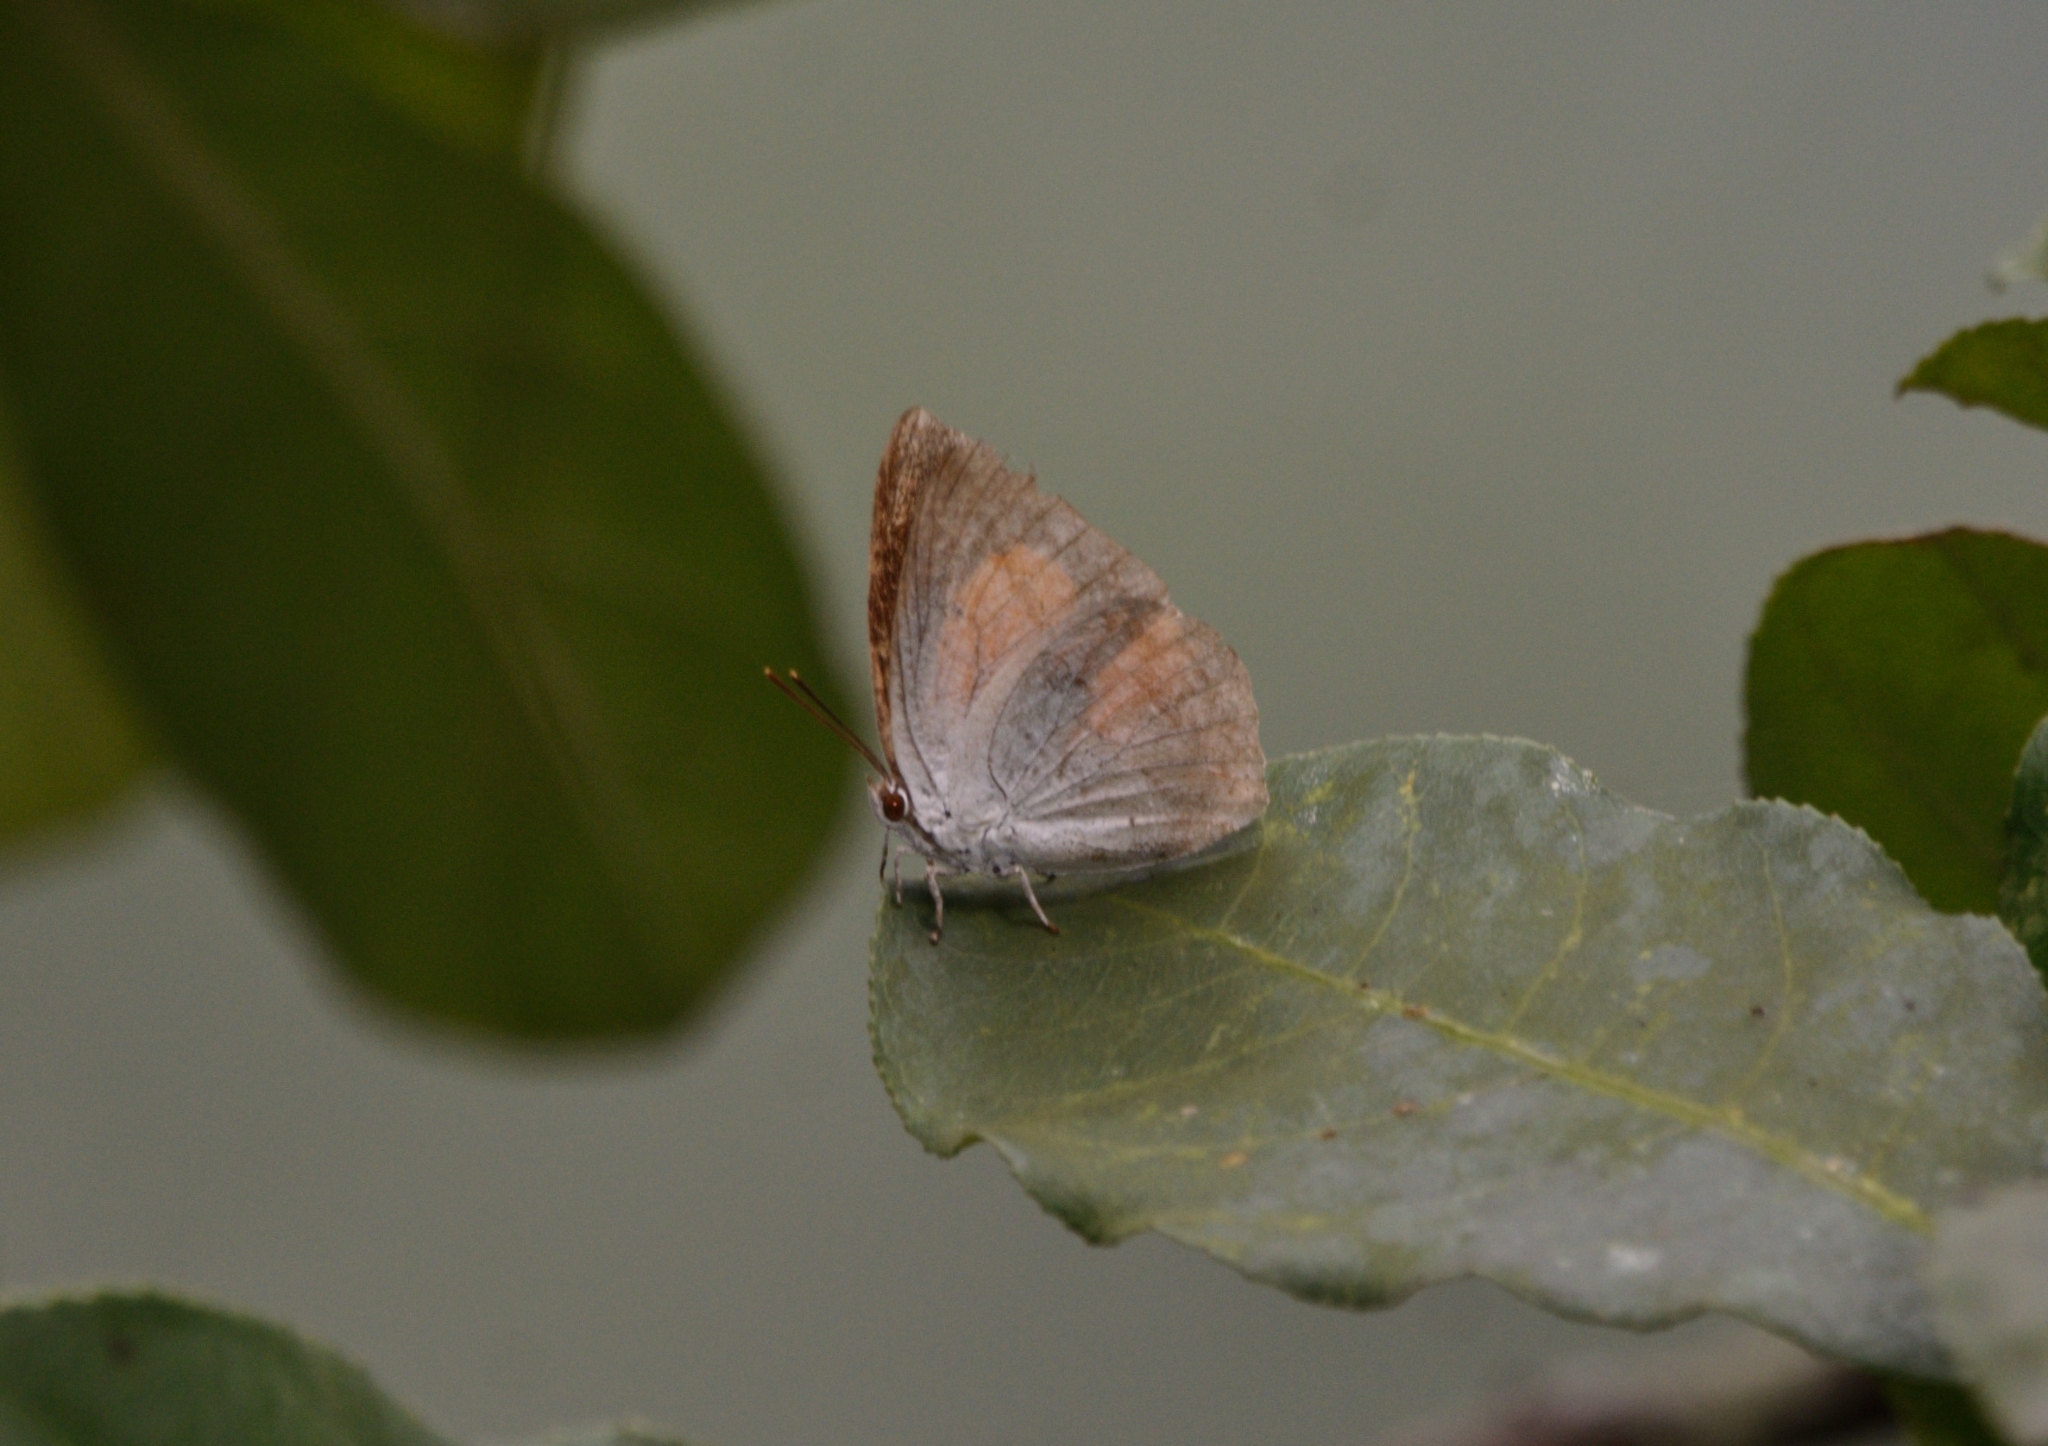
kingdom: Animalia
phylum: Arthropoda
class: Insecta
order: Lepidoptera
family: Lycaenidae
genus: Curetis
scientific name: Curetis acuta
